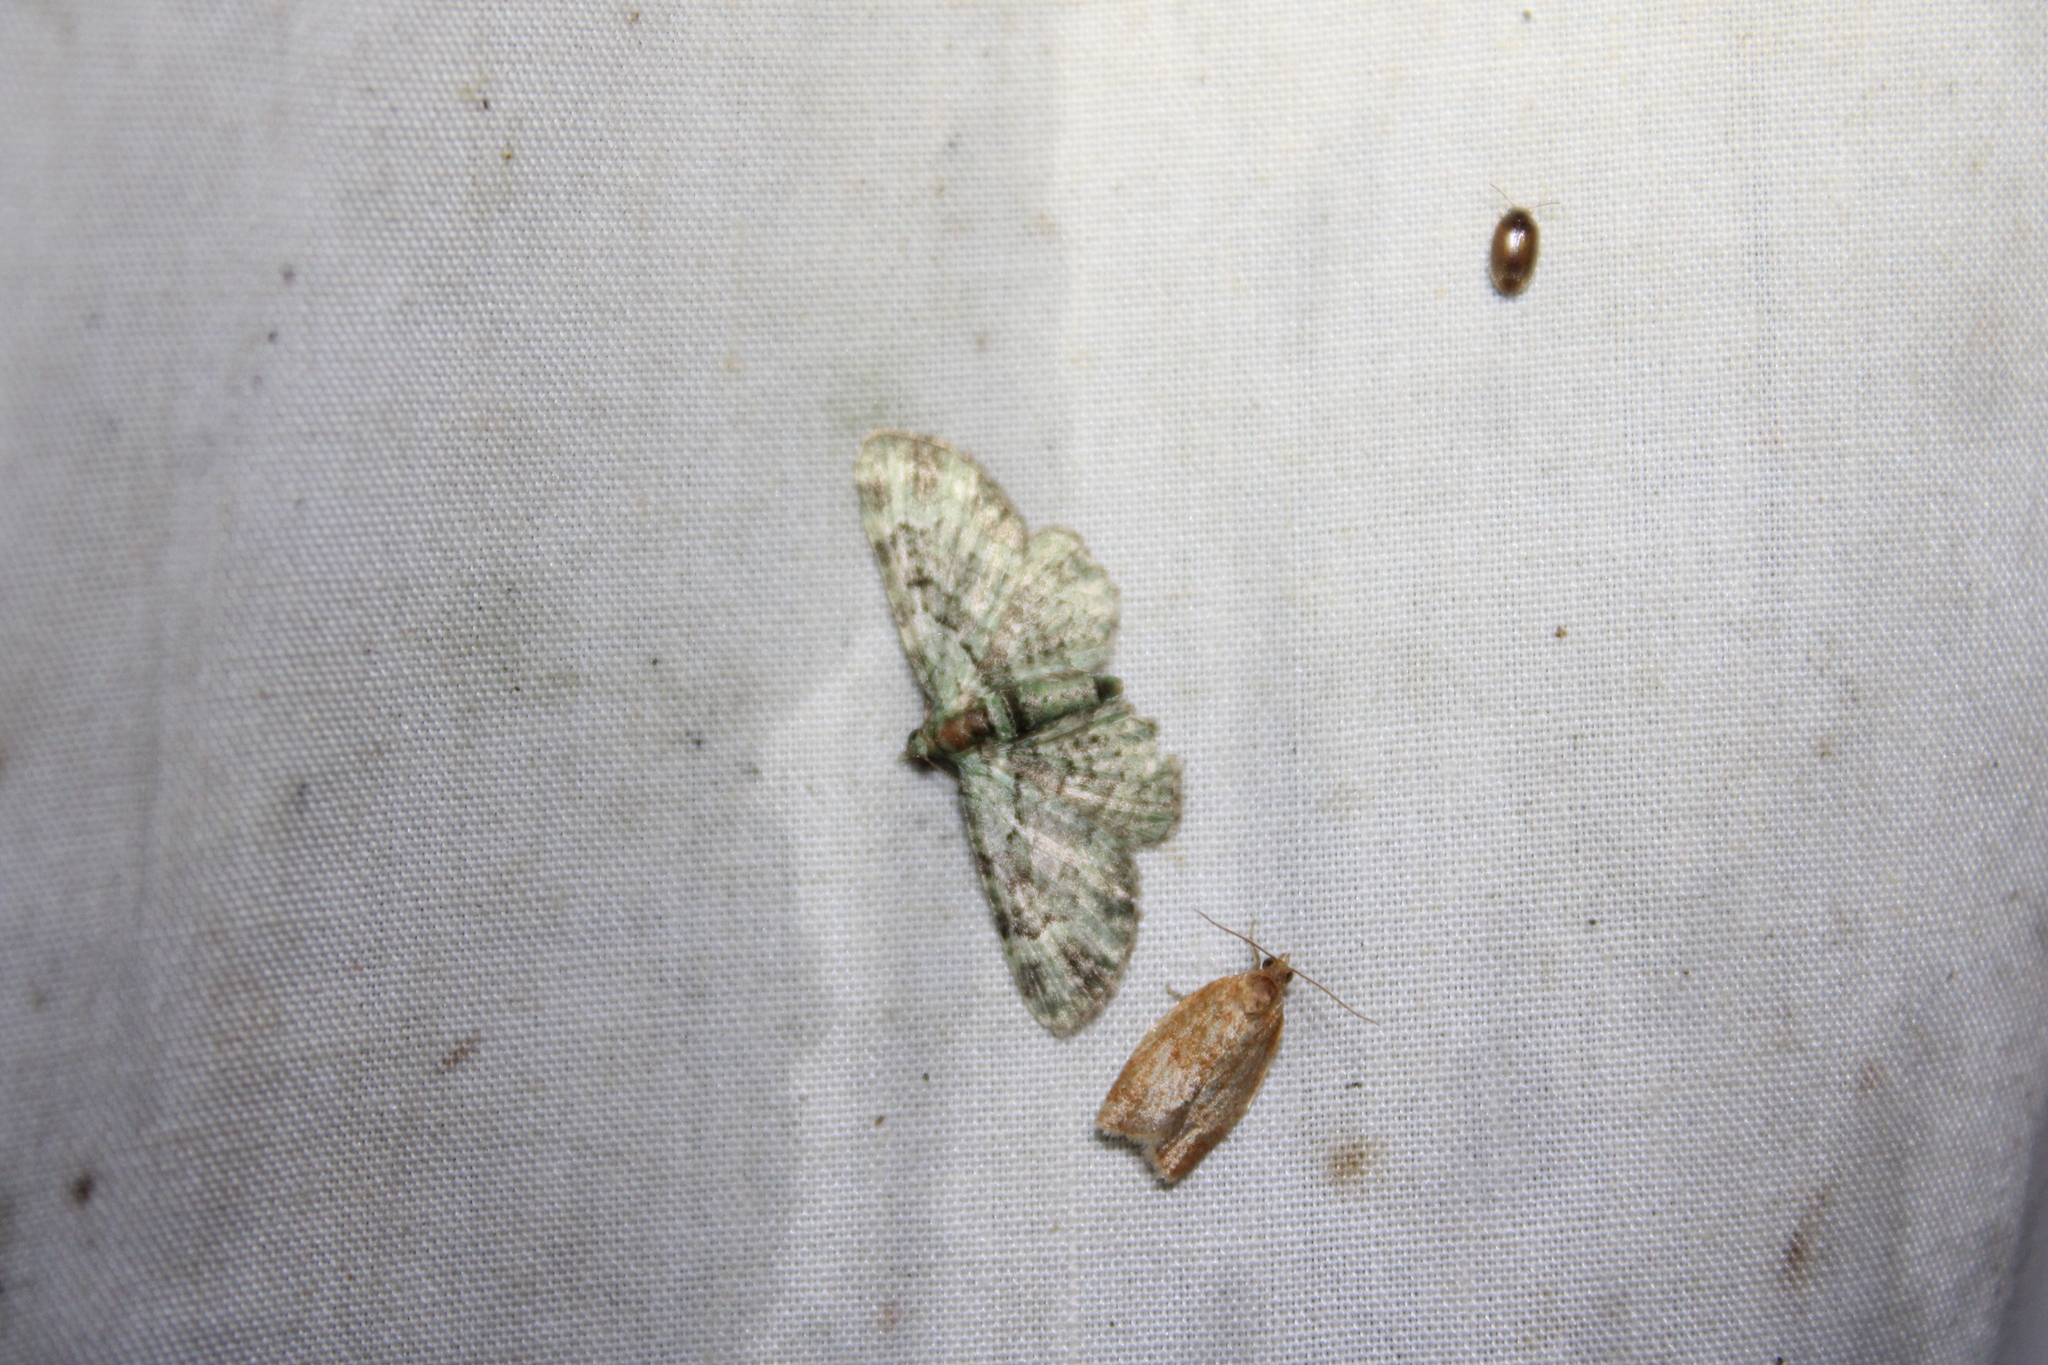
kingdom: Animalia
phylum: Arthropoda
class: Insecta
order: Lepidoptera
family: Geometridae
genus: Pasiphila
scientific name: Pasiphila rectangulata
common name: Green pug
